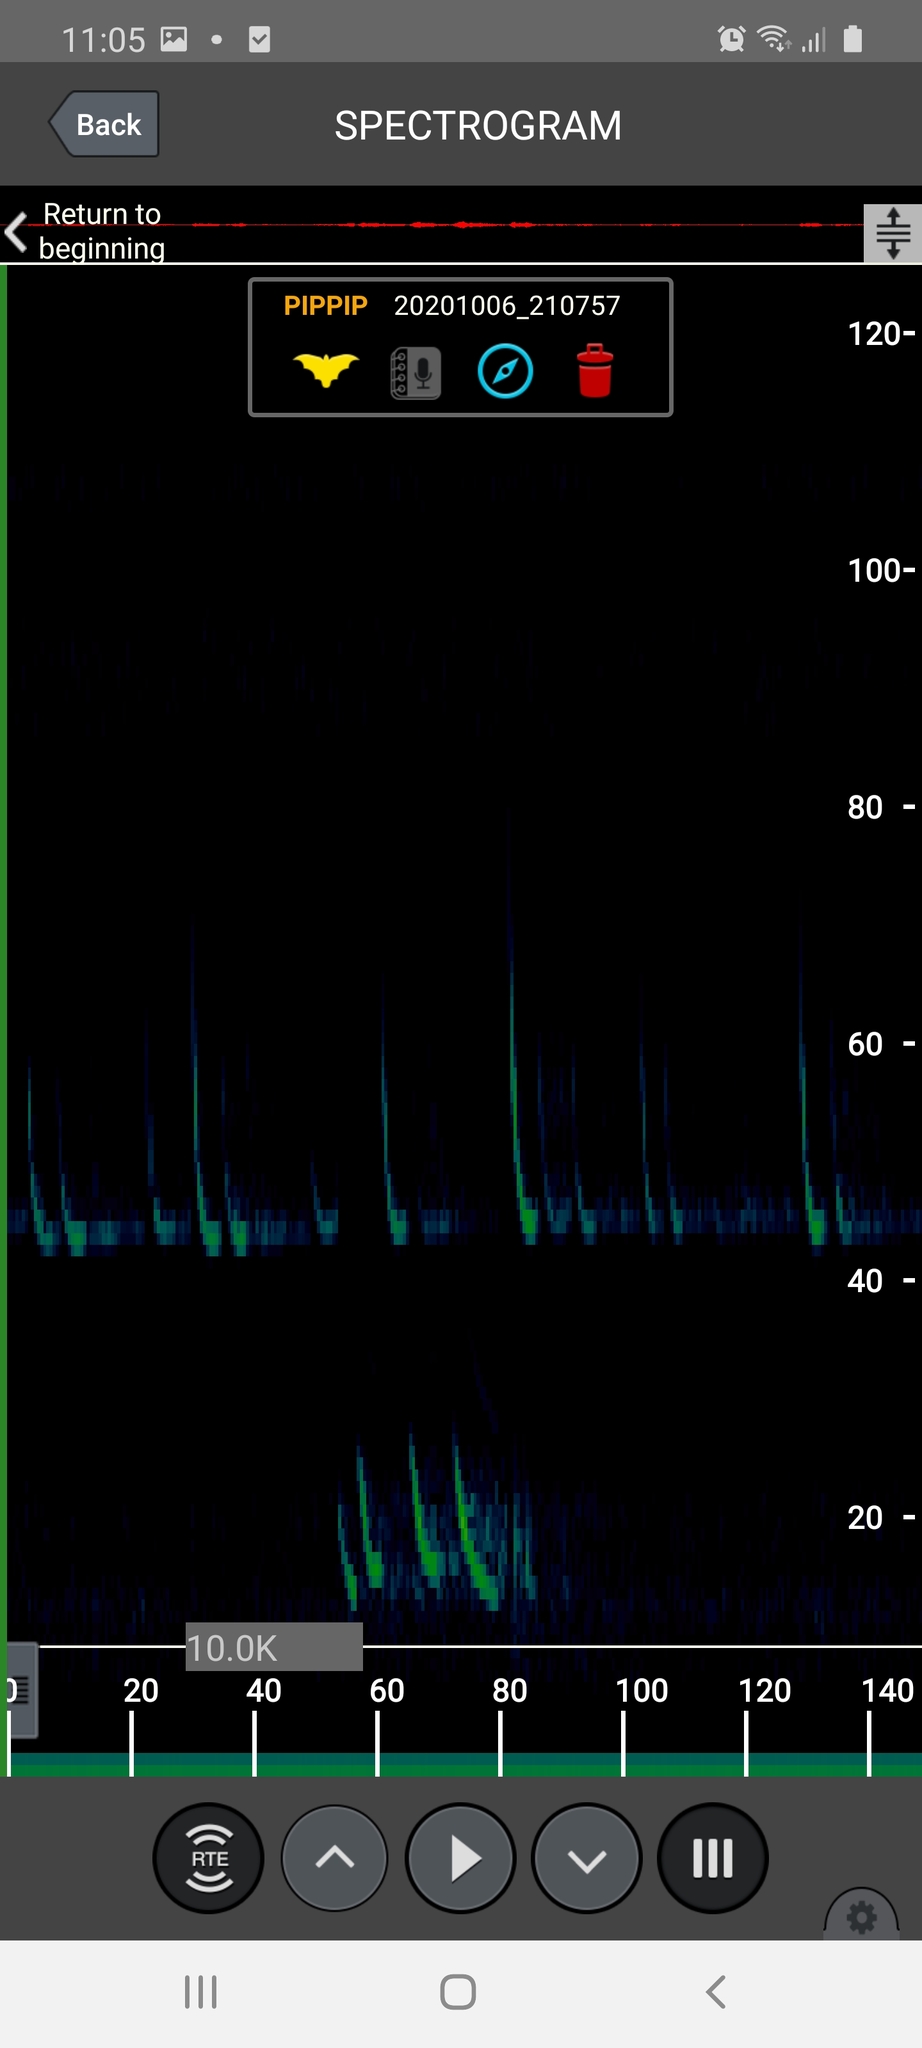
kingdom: Animalia
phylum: Chordata
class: Mammalia
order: Chiroptera
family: Vespertilionidae
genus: Pipistrellus
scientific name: Pipistrellus pipistrellus
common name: Common pipistrelle
